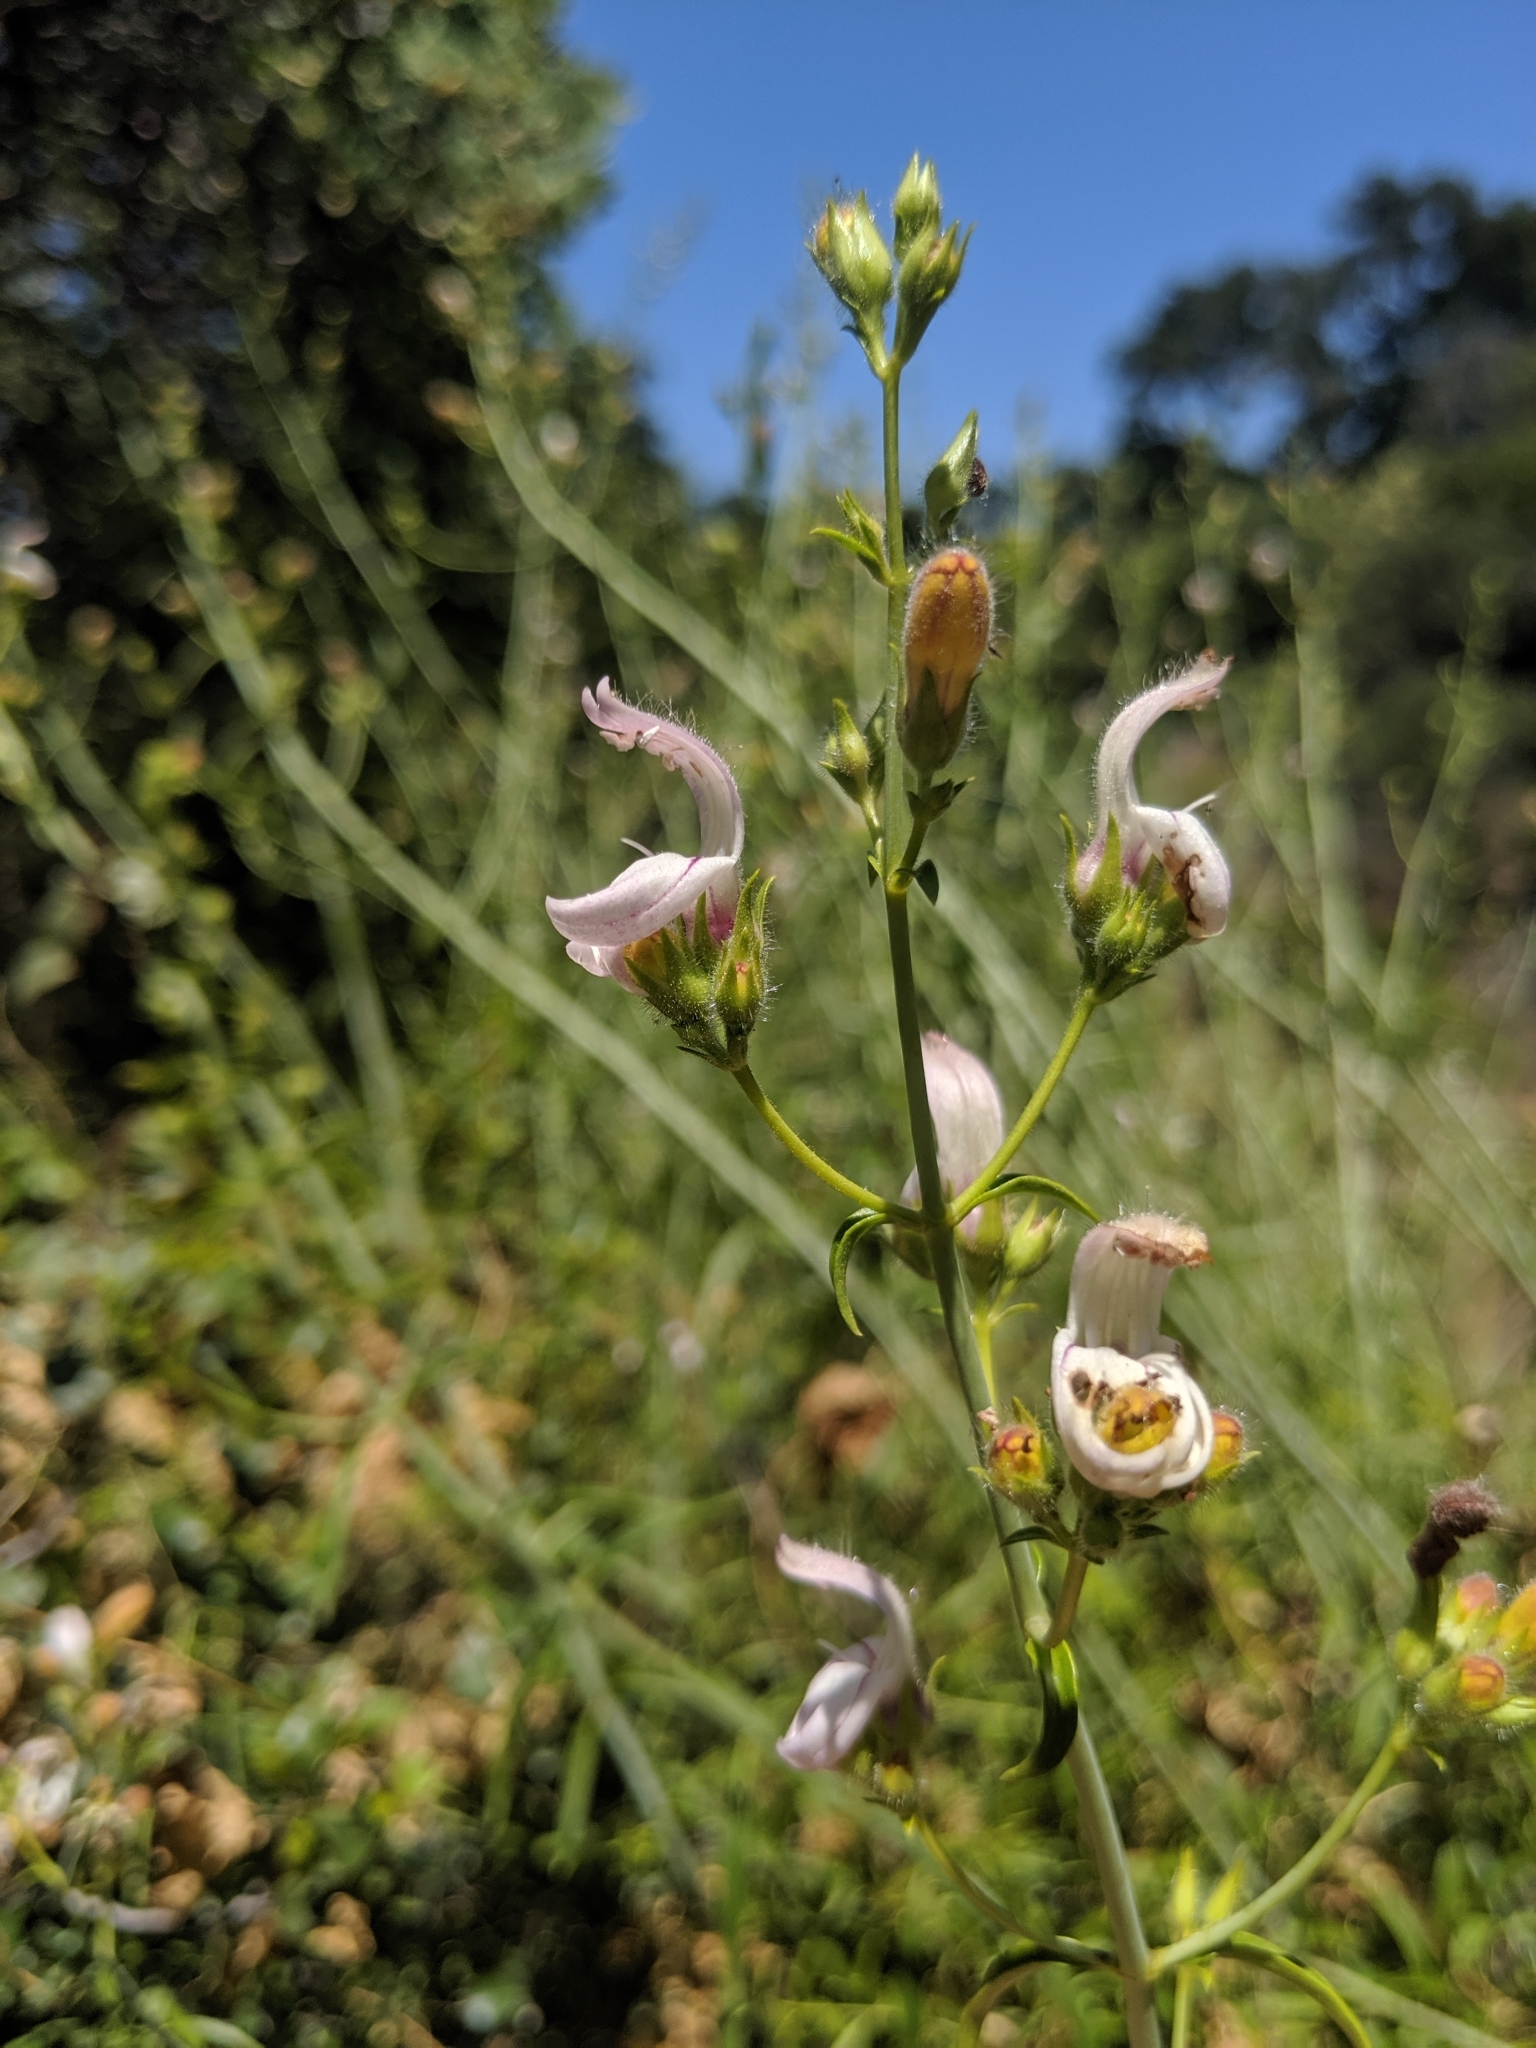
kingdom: Plantae
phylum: Tracheophyta
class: Magnoliopsida
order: Lamiales
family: Plantaginaceae
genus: Keckiella
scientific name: Keckiella breviflora
